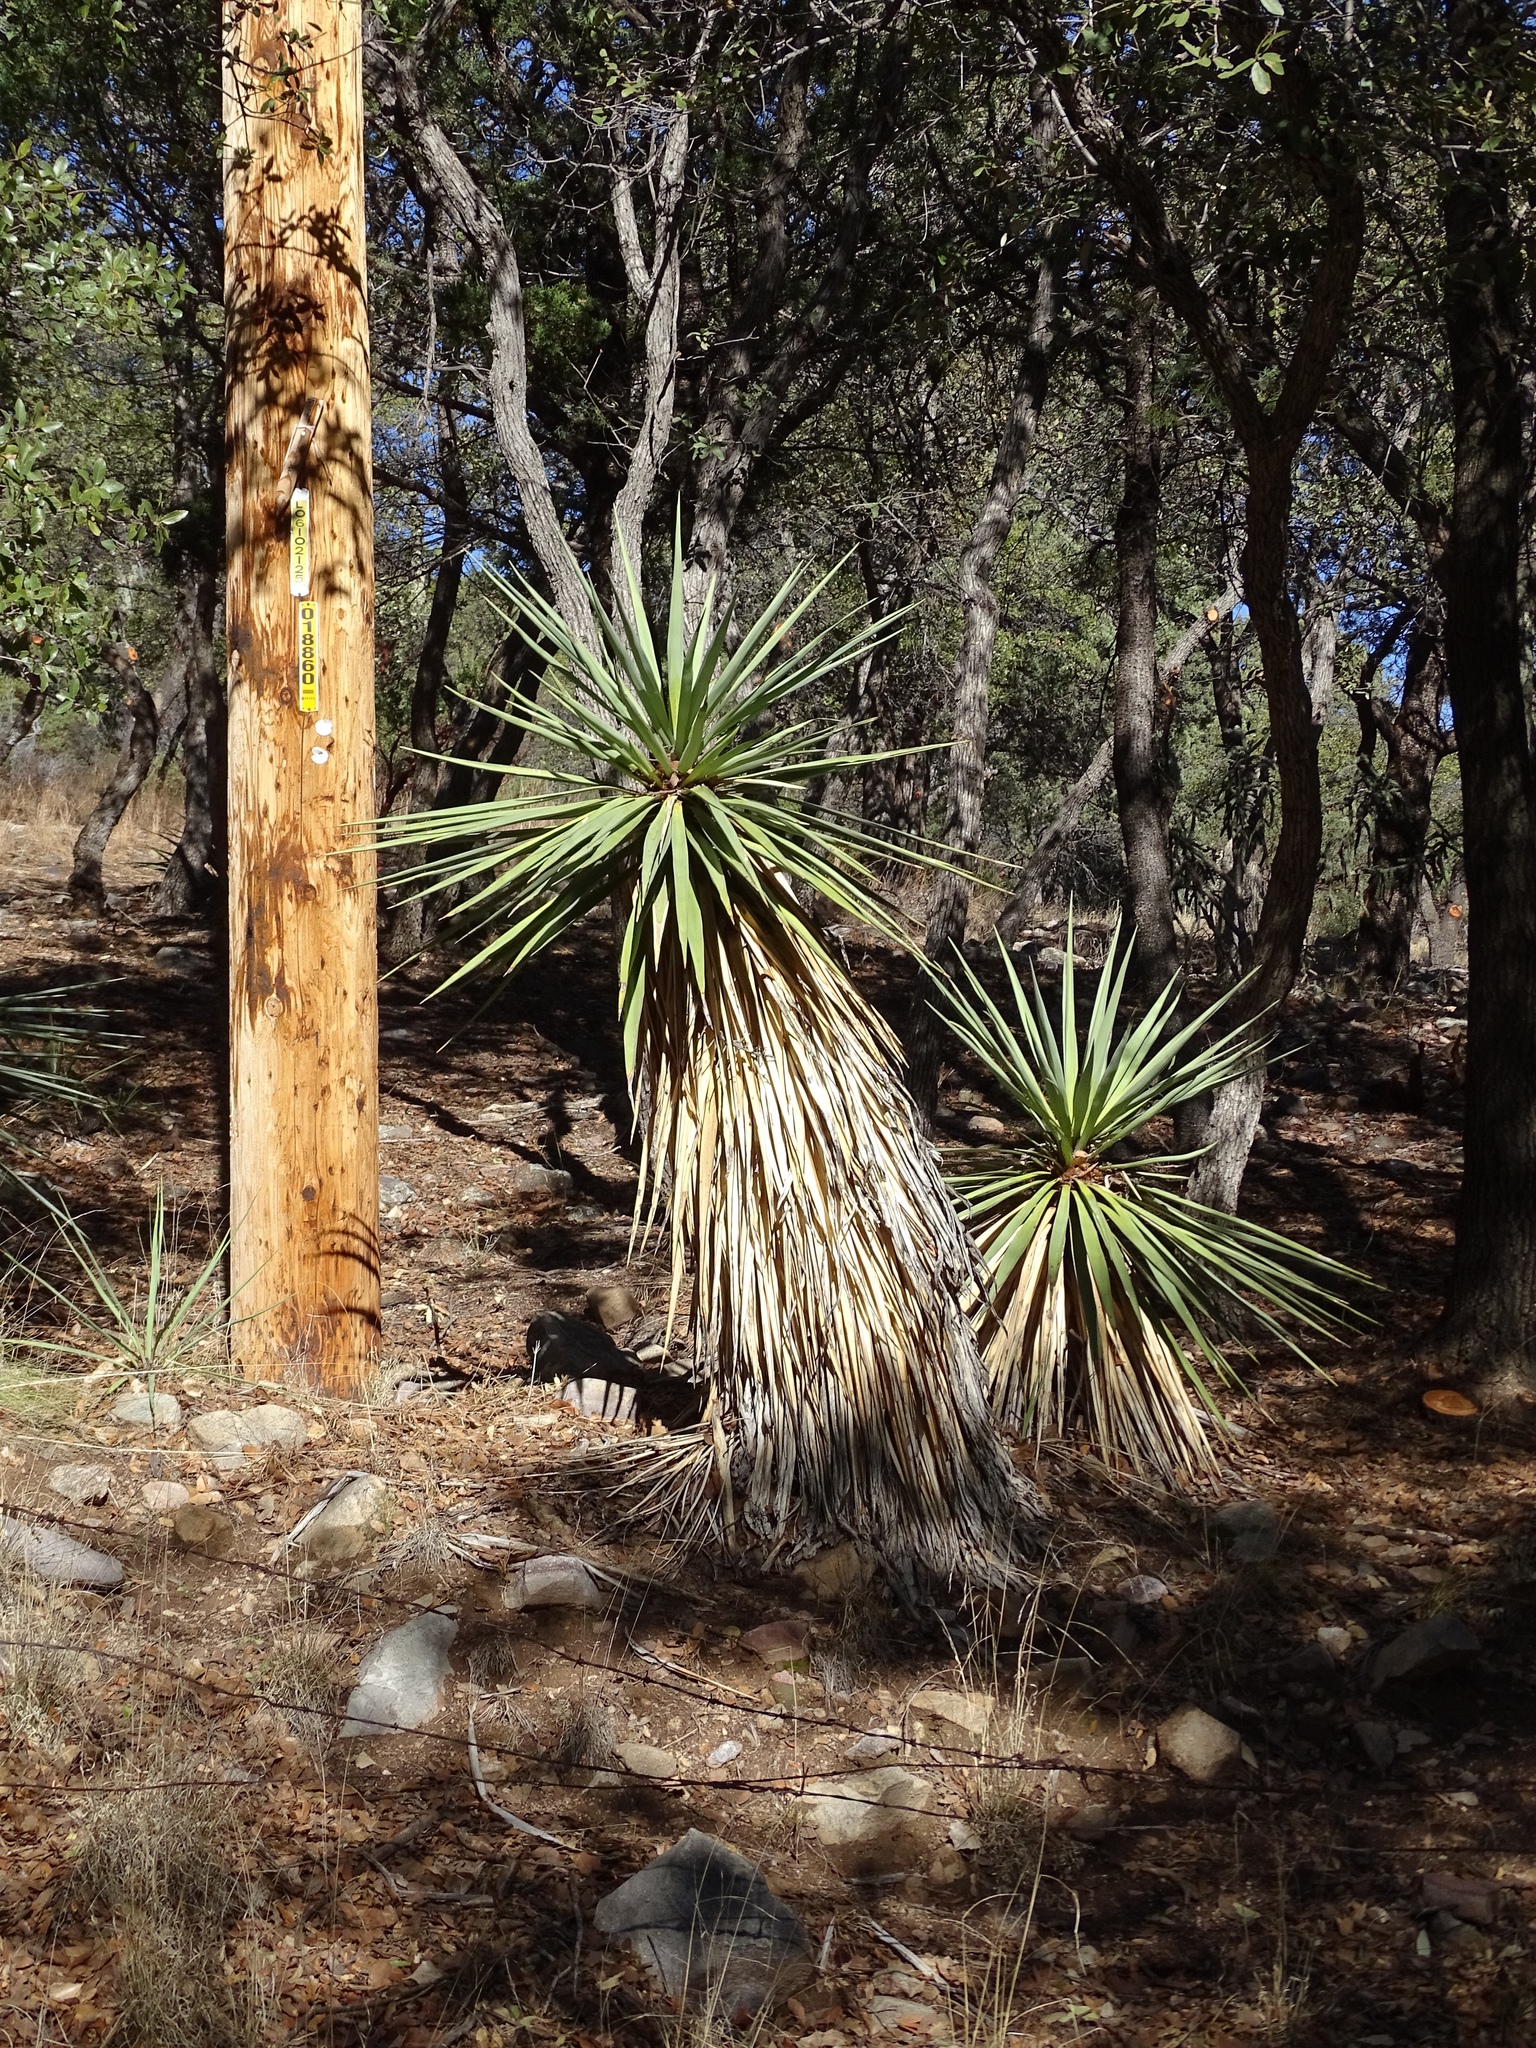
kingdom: Plantae
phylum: Tracheophyta
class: Liliopsida
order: Asparagales
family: Asparagaceae
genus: Yucca
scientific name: Yucca madrensis
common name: Hoary yucca
